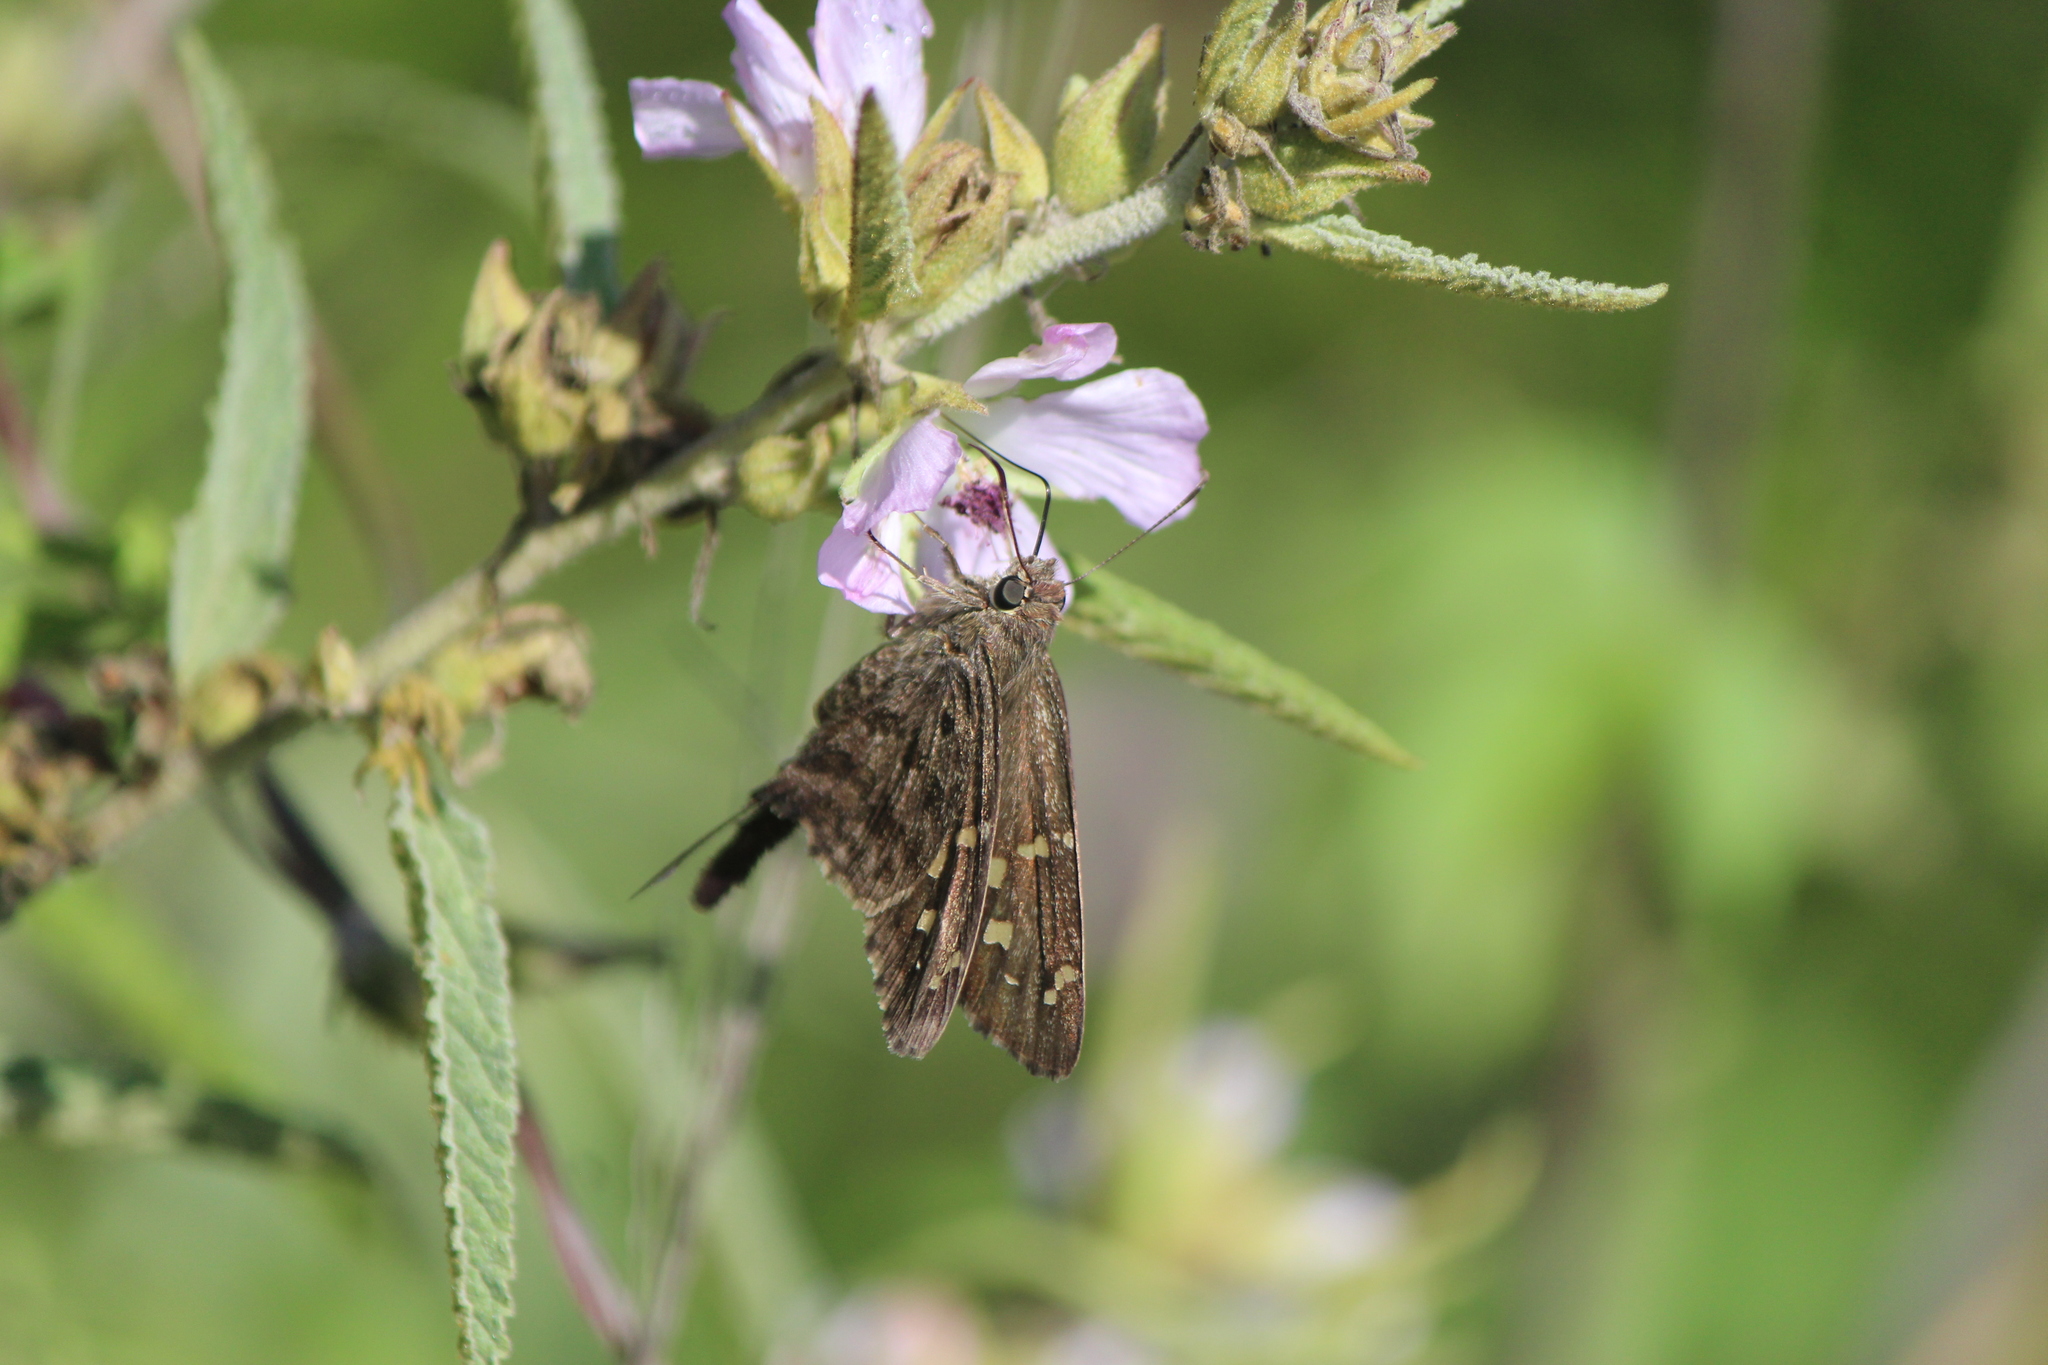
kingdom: Animalia
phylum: Arthropoda
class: Insecta
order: Lepidoptera
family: Hesperiidae
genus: Thorybes
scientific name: Thorybes
